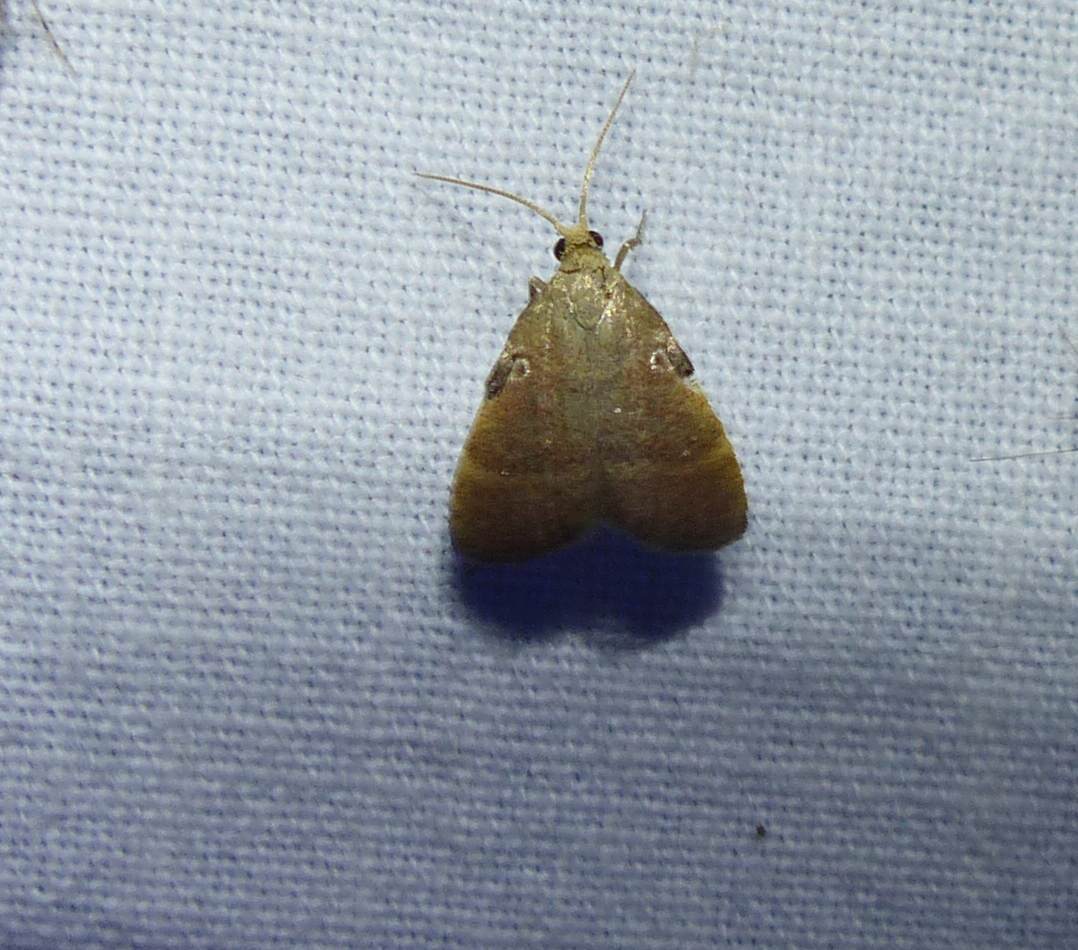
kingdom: Animalia
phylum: Arthropoda
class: Insecta
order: Lepidoptera
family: Pyralidae
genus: Condylolomia
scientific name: Condylolomia participialis
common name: Drab condylolomia moth
